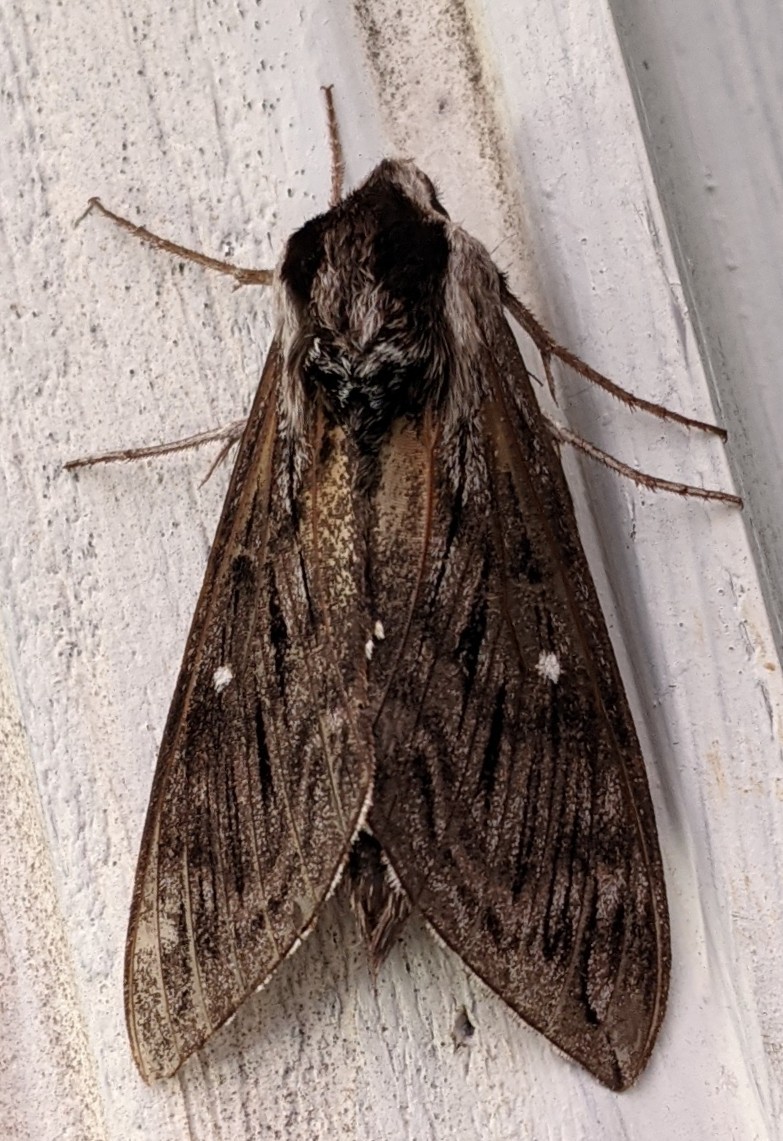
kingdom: Animalia
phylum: Arthropoda
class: Insecta
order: Lepidoptera
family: Sphingidae
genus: Sphinx
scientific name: Sphinx poecila
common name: Northern apple sphinx
